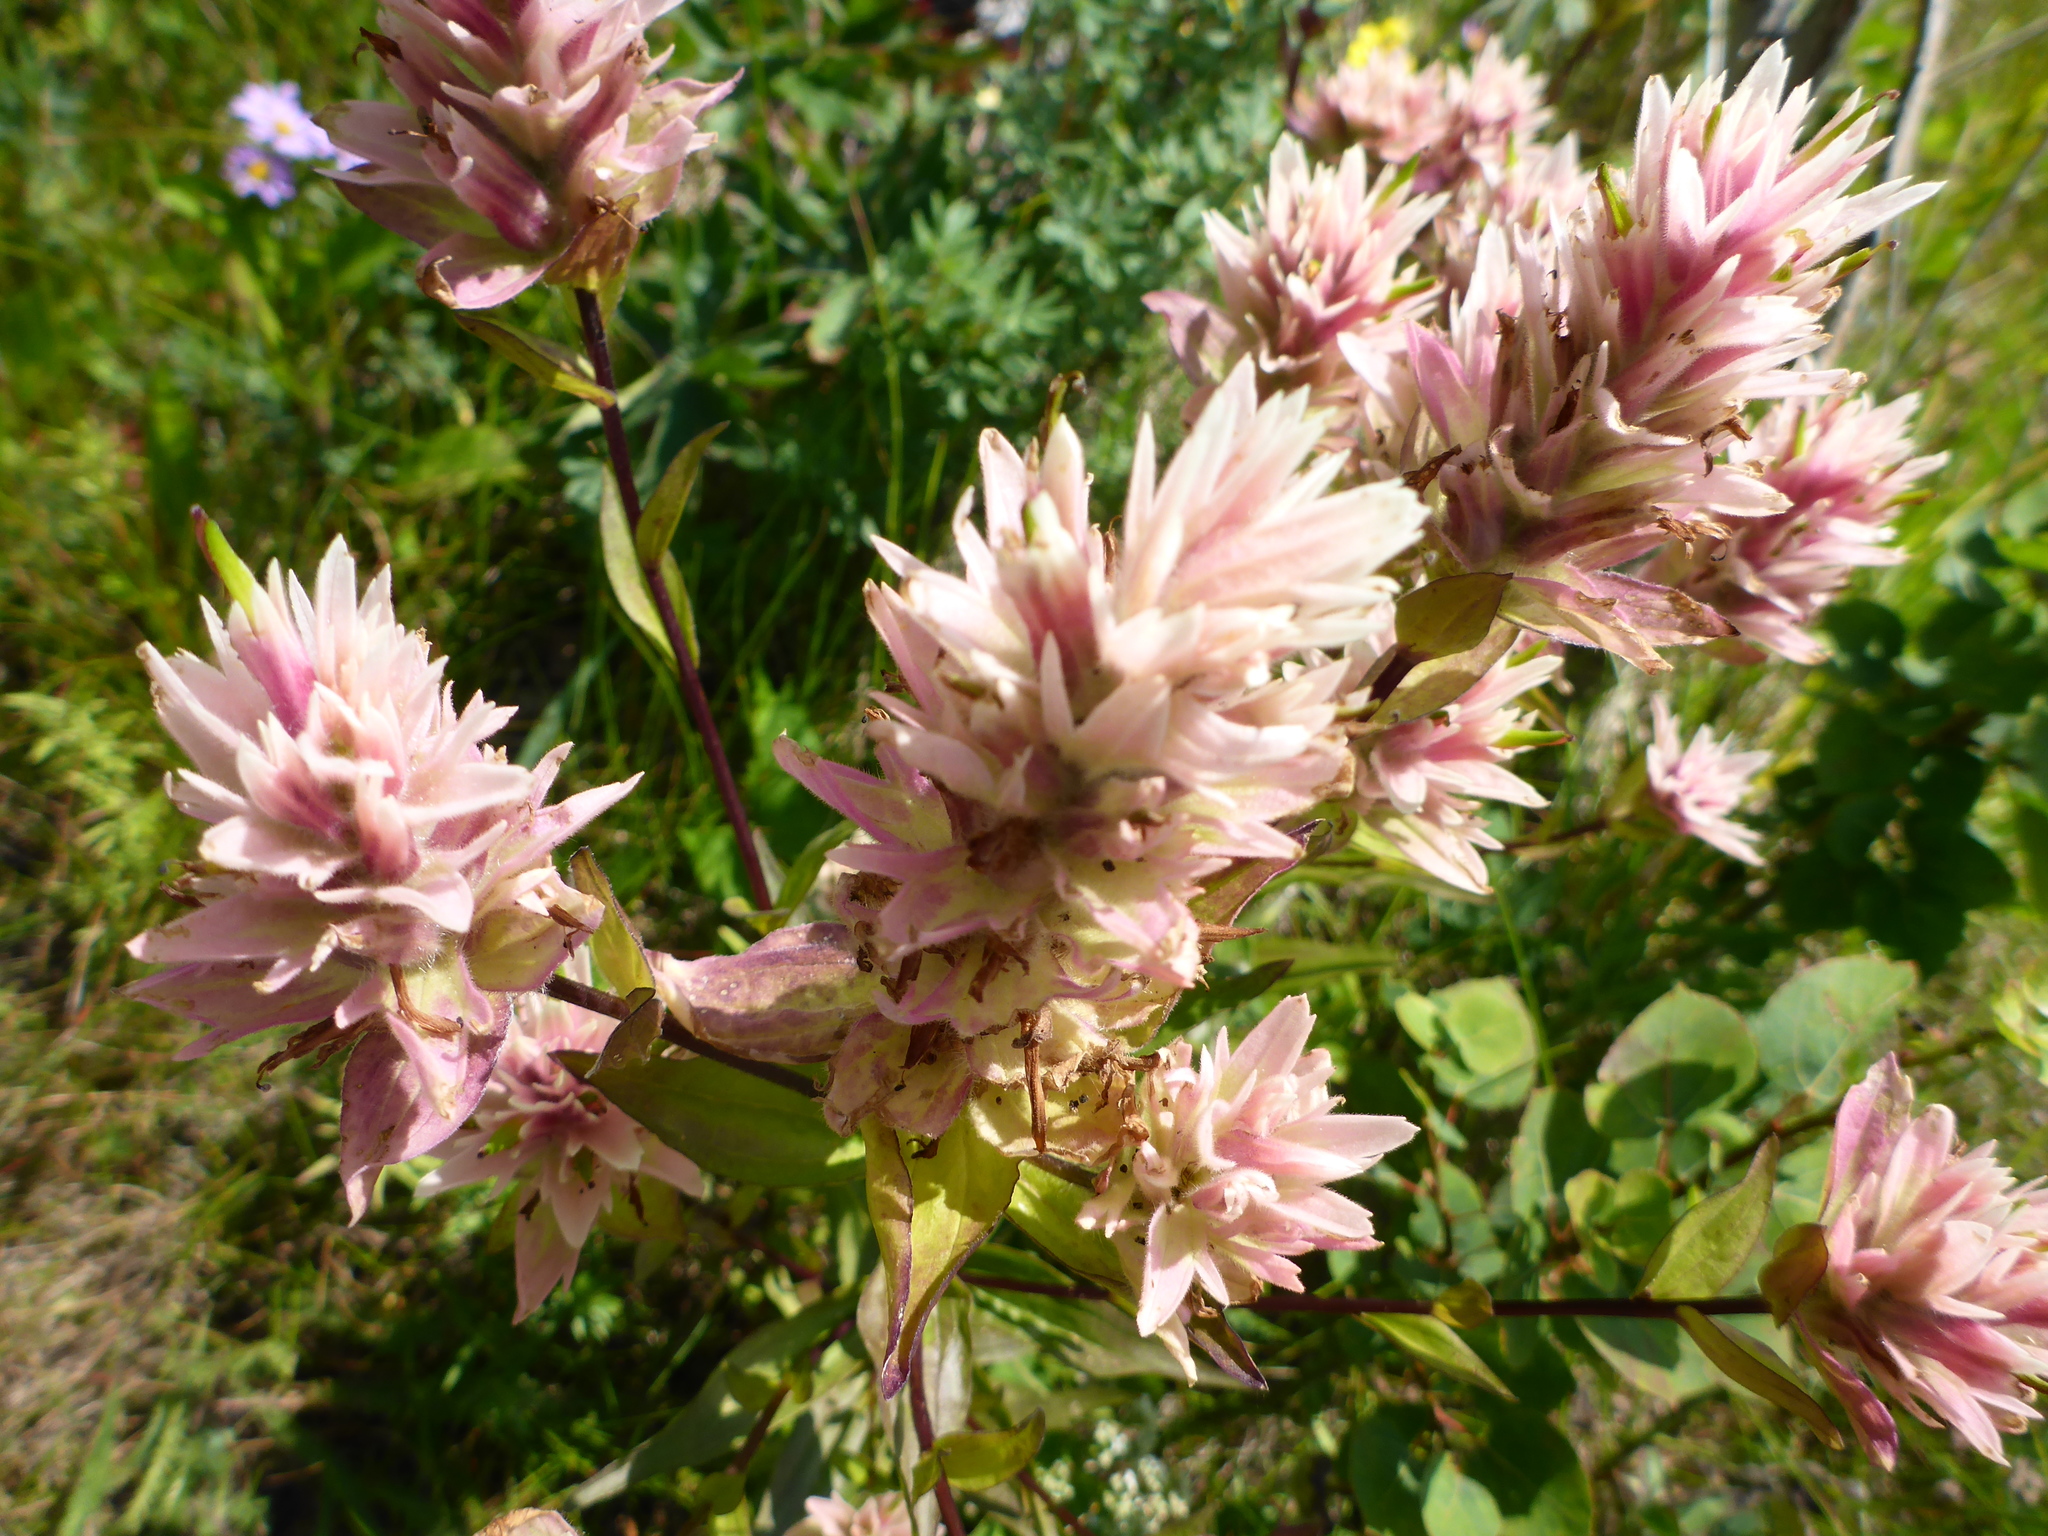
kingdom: Plantae
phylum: Tracheophyta
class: Magnoliopsida
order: Lamiales
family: Orobanchaceae
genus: Castilleja
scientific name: Castilleja miniata
